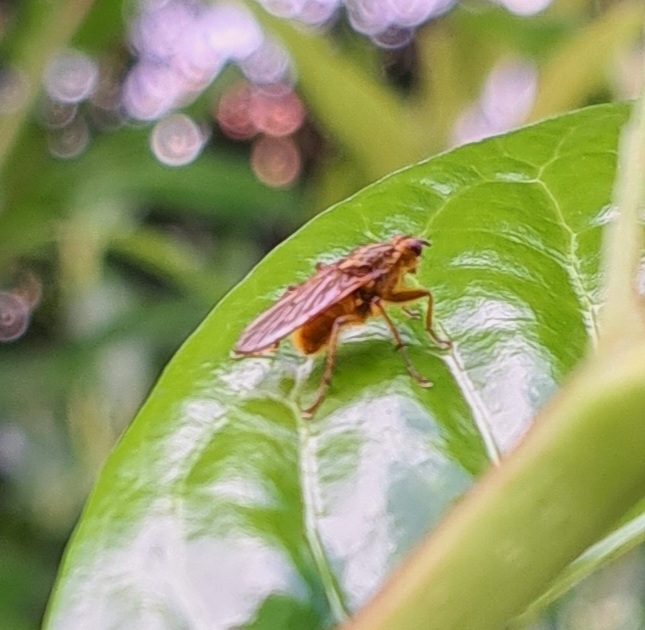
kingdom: Animalia
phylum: Arthropoda
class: Insecta
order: Diptera
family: Scathophagidae
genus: Scathophaga
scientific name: Scathophaga stercoraria
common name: Yellow dung fly
